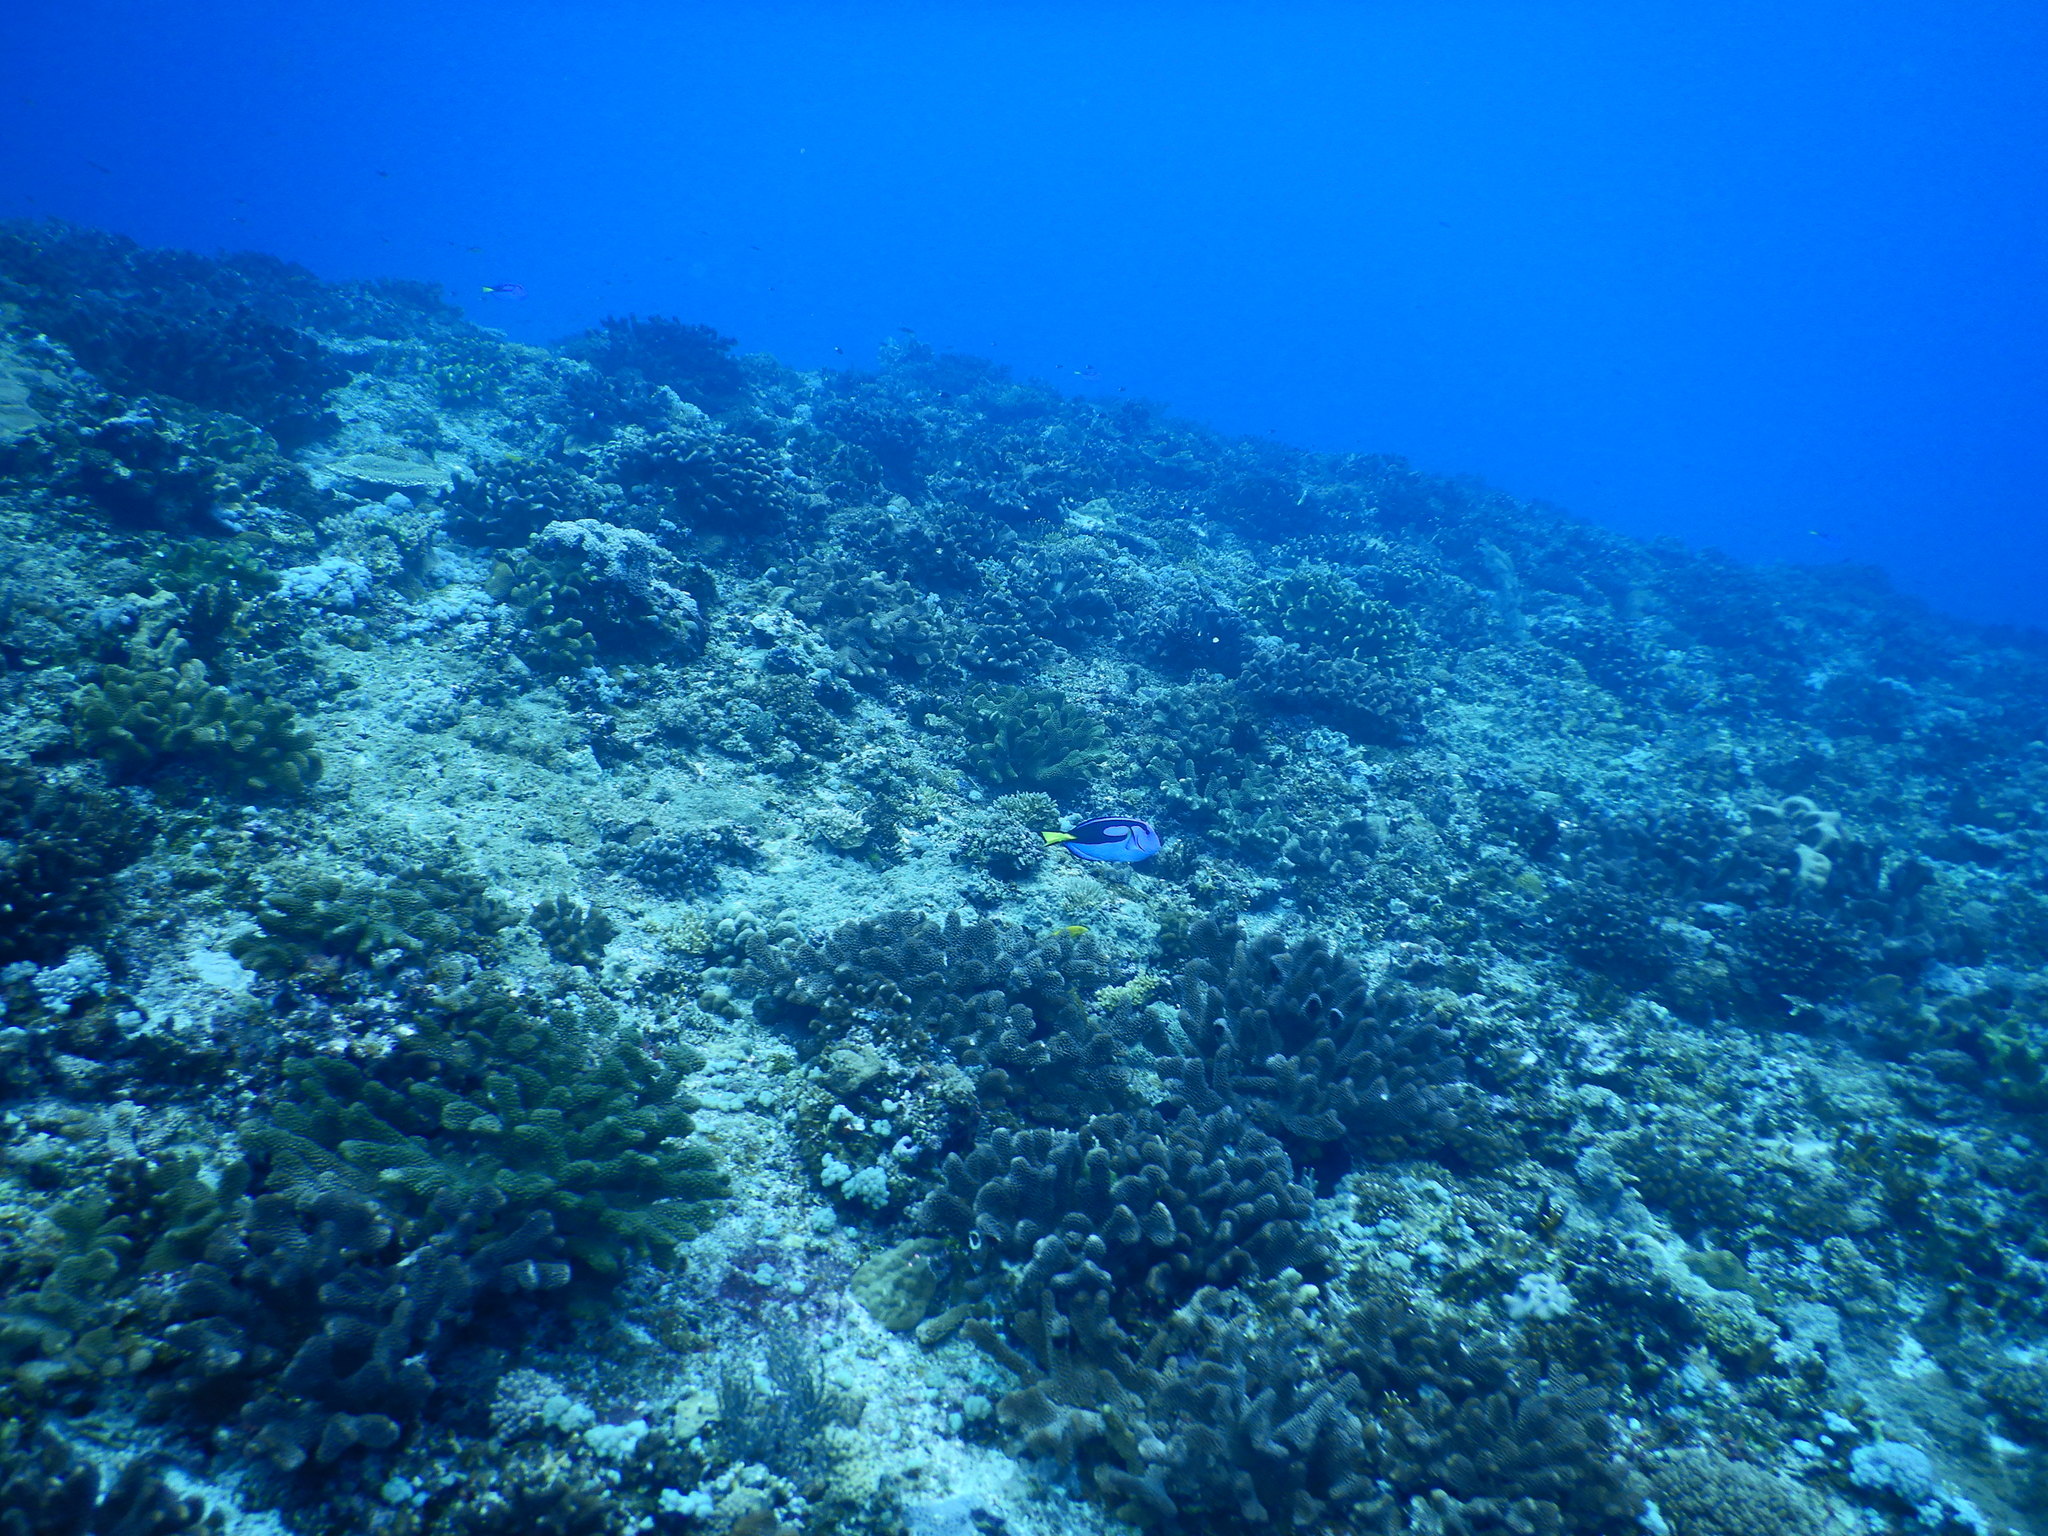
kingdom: Animalia
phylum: Chordata
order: Perciformes
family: Acanthuridae
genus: Paracanthurus
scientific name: Paracanthurus hepatus
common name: Palette surgeonfish
